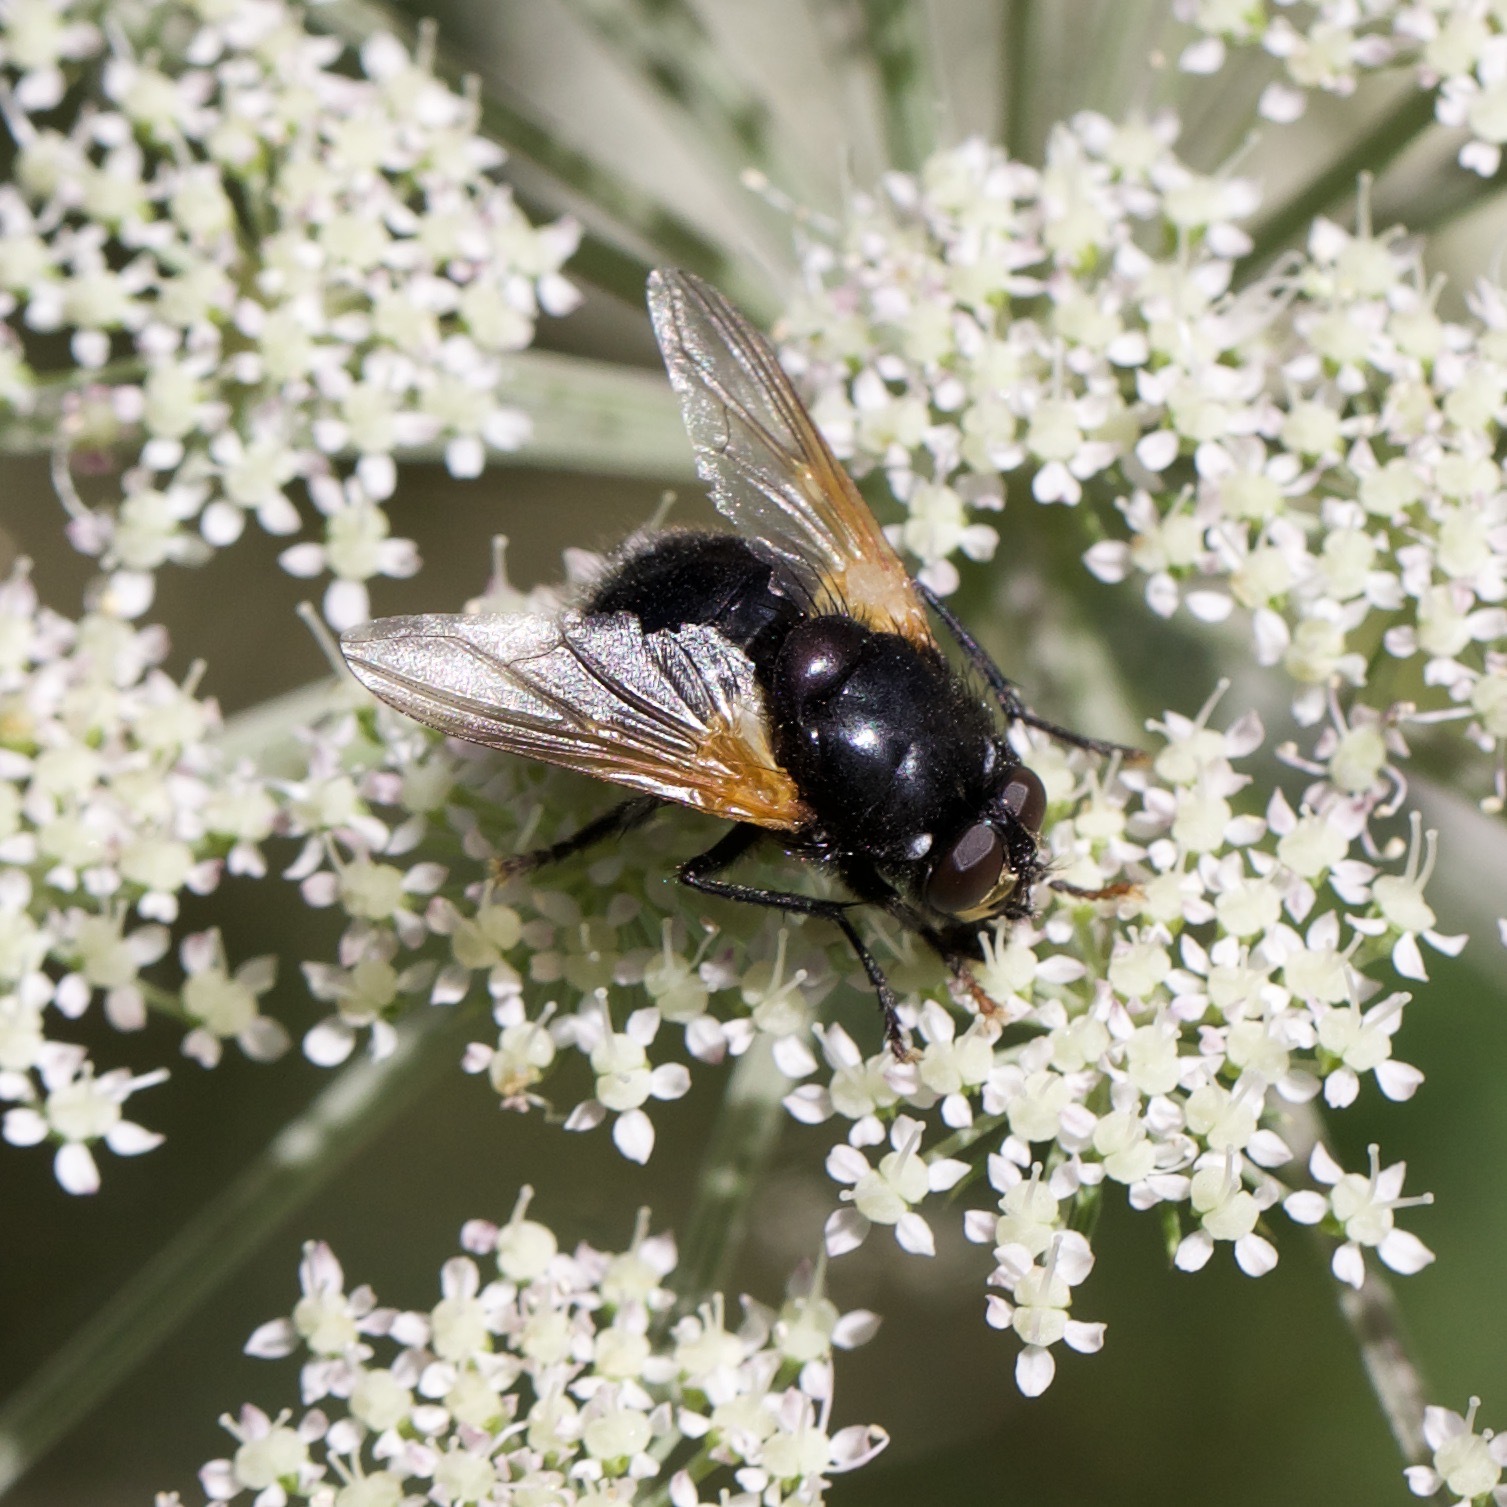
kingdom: Animalia
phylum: Arthropoda
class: Insecta
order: Diptera
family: Muscidae
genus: Mesembrina
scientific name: Mesembrina meridiana
